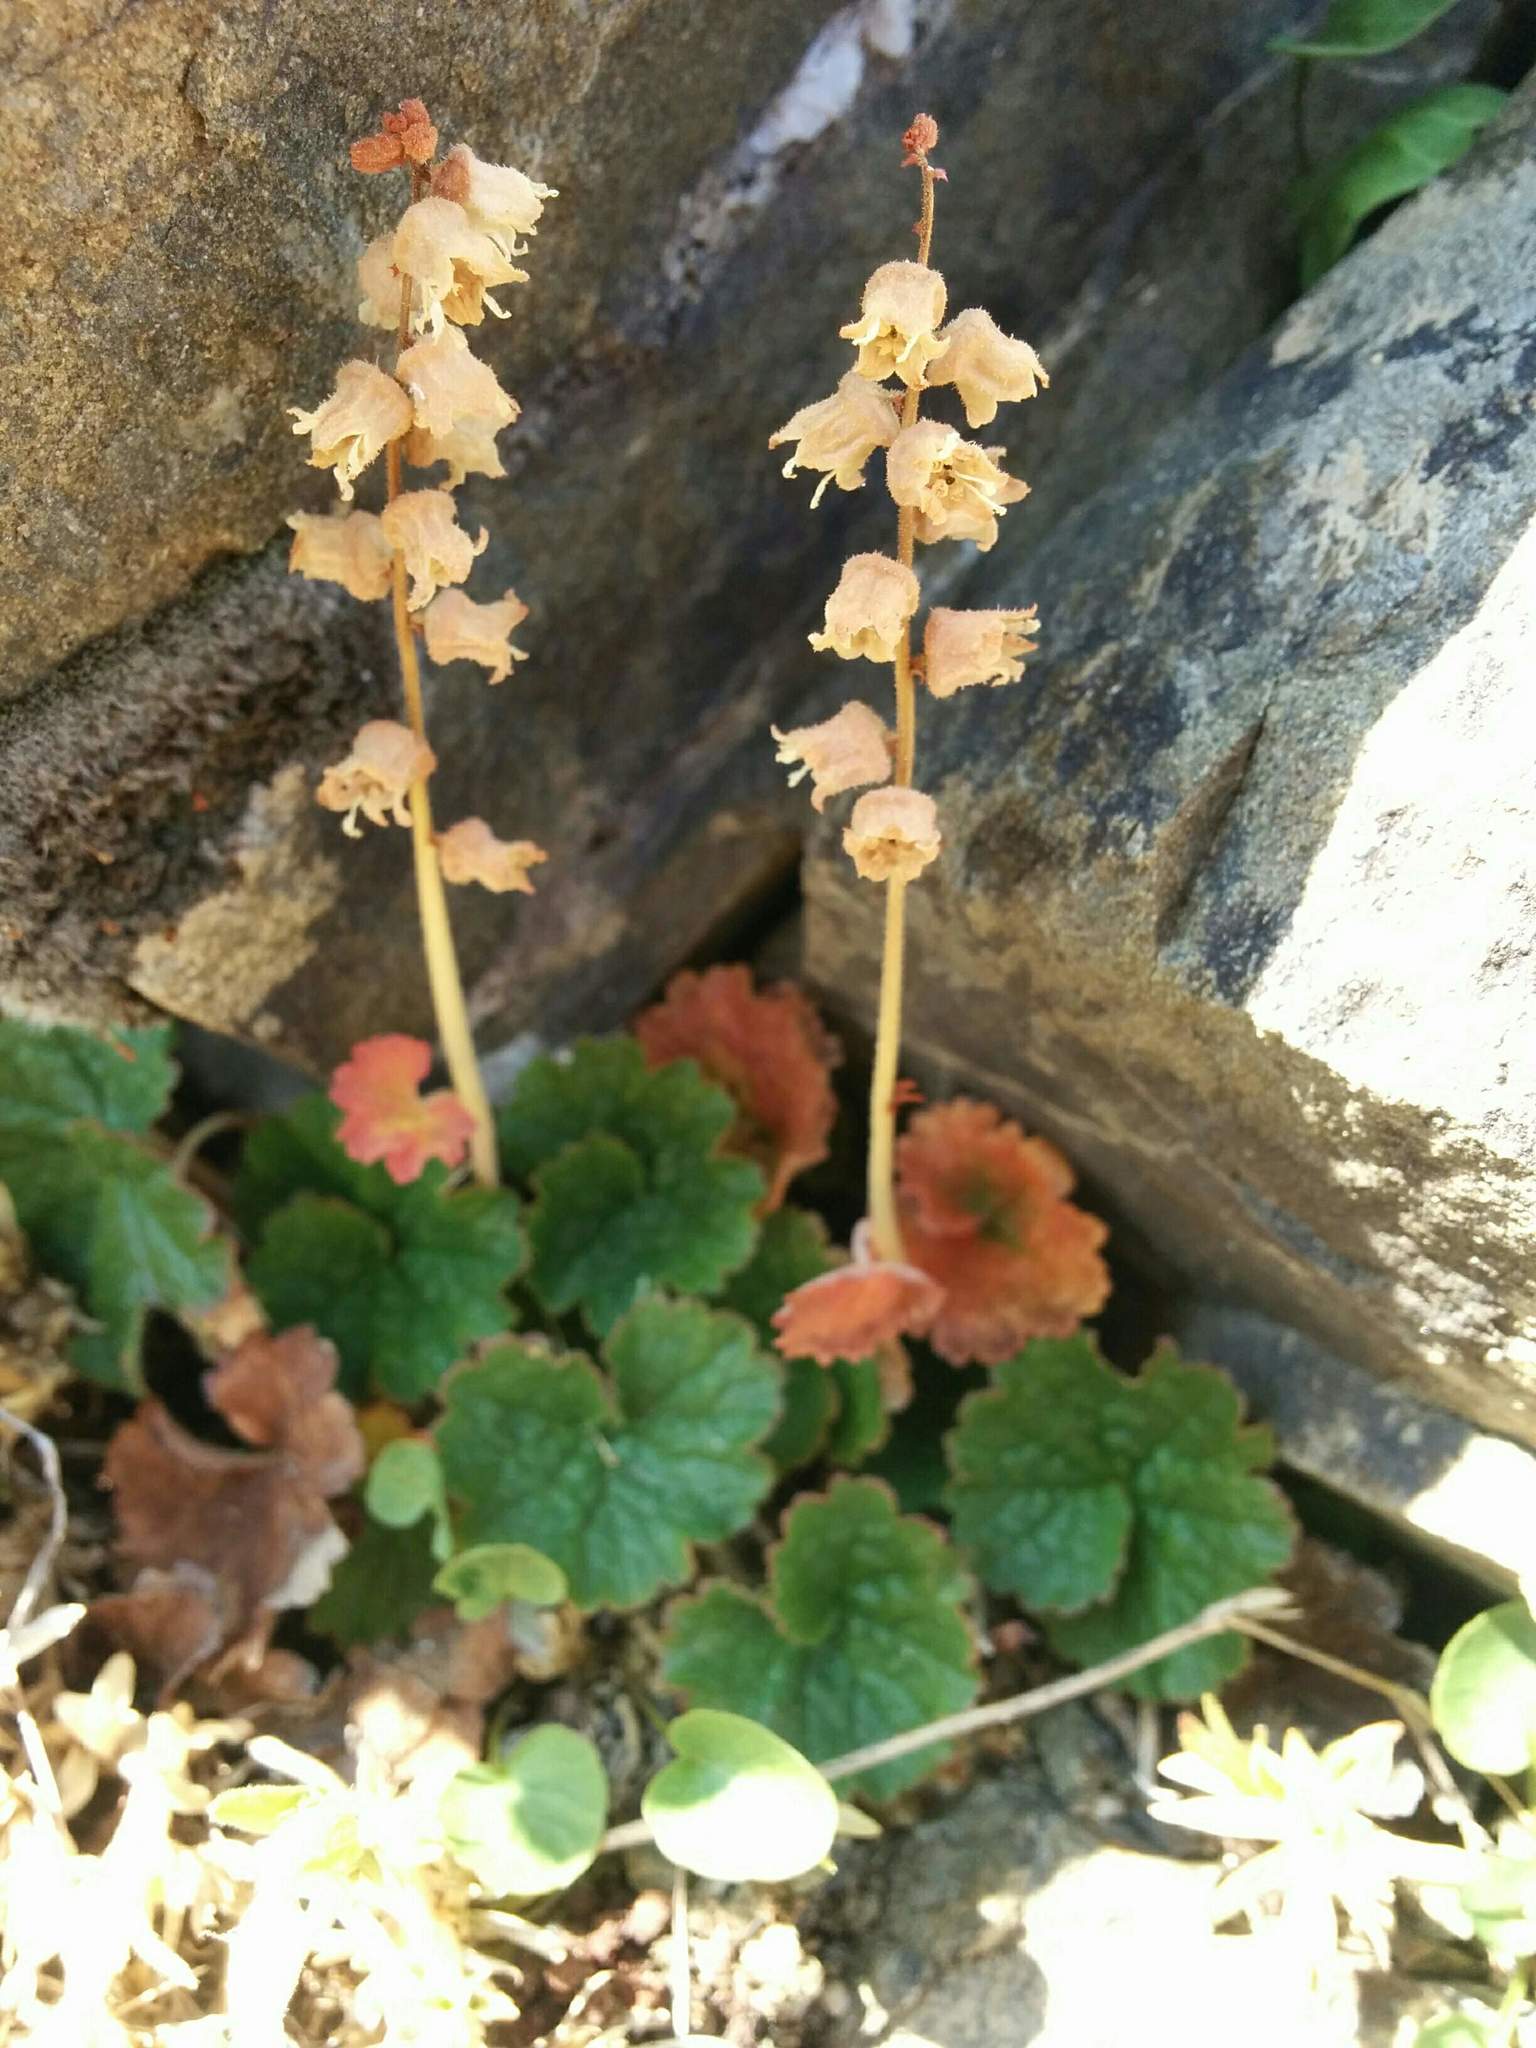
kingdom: Plantae
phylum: Tracheophyta
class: Magnoliopsida
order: Saxifragales
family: Saxifragaceae
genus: Elmera
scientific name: Elmera racemosa
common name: Elmera
